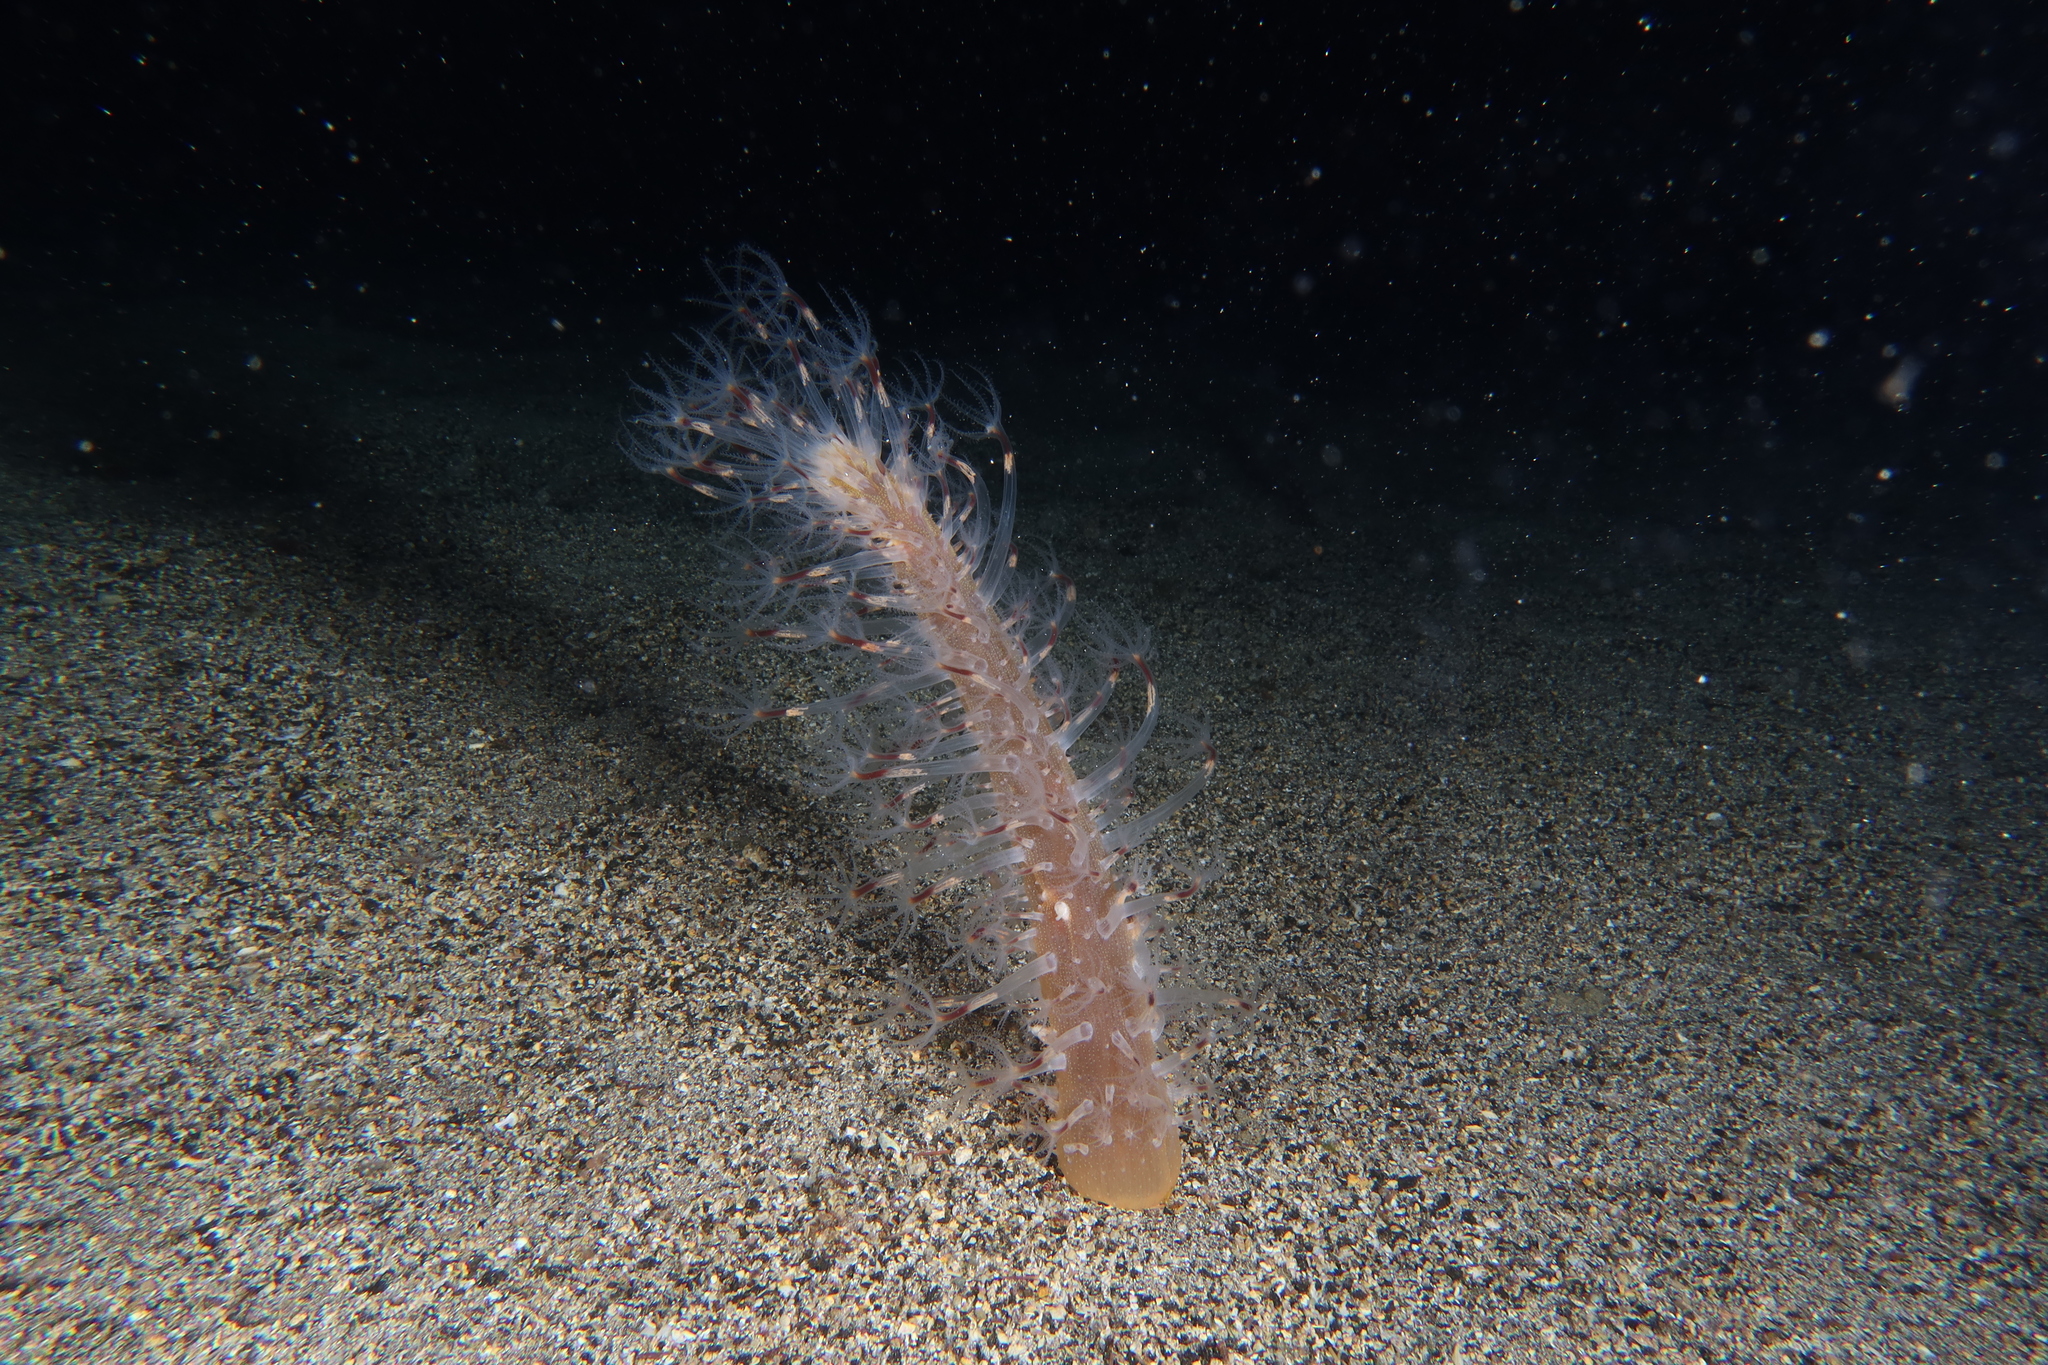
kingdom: Animalia
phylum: Cnidaria
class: Anthozoa
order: Scleralcyonacea
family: Veretillidae
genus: Veretillum
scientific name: Veretillum cynomorium
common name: Finger-shaped sea-pen
